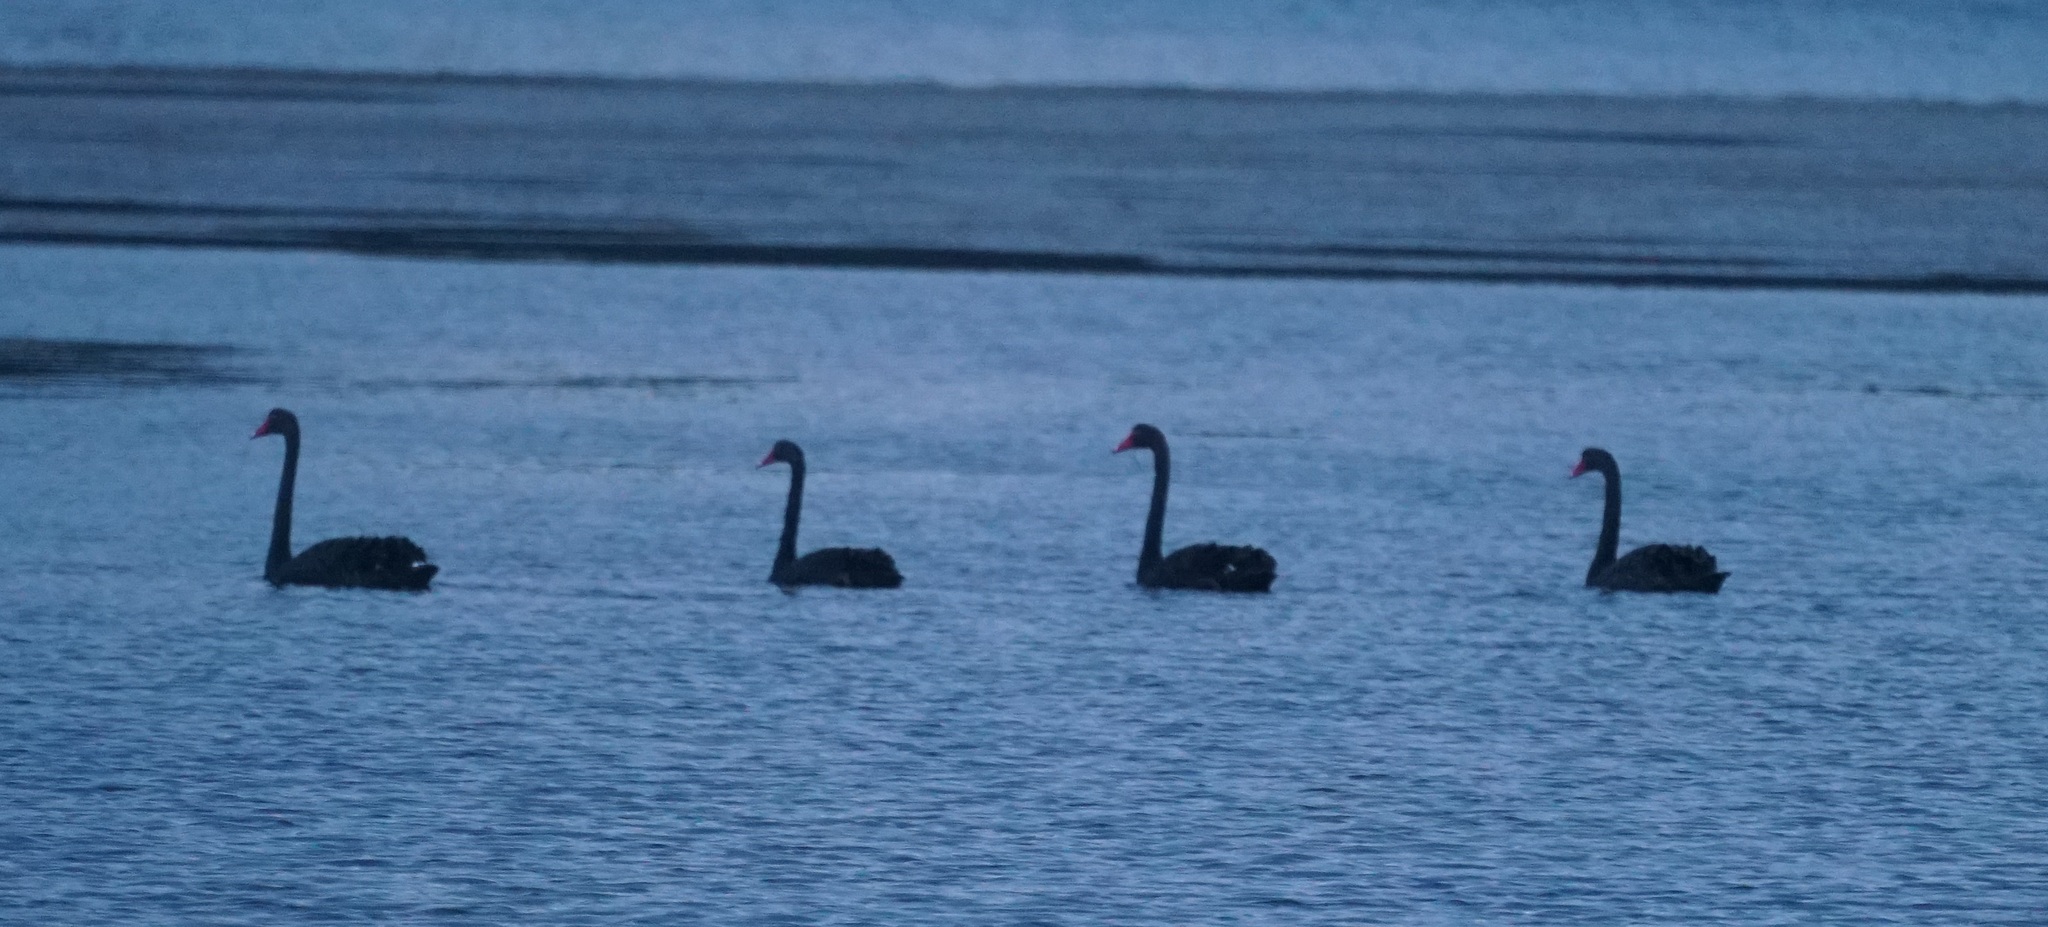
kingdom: Animalia
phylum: Chordata
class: Aves
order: Anseriformes
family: Anatidae
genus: Cygnus
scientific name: Cygnus atratus
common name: Black swan
